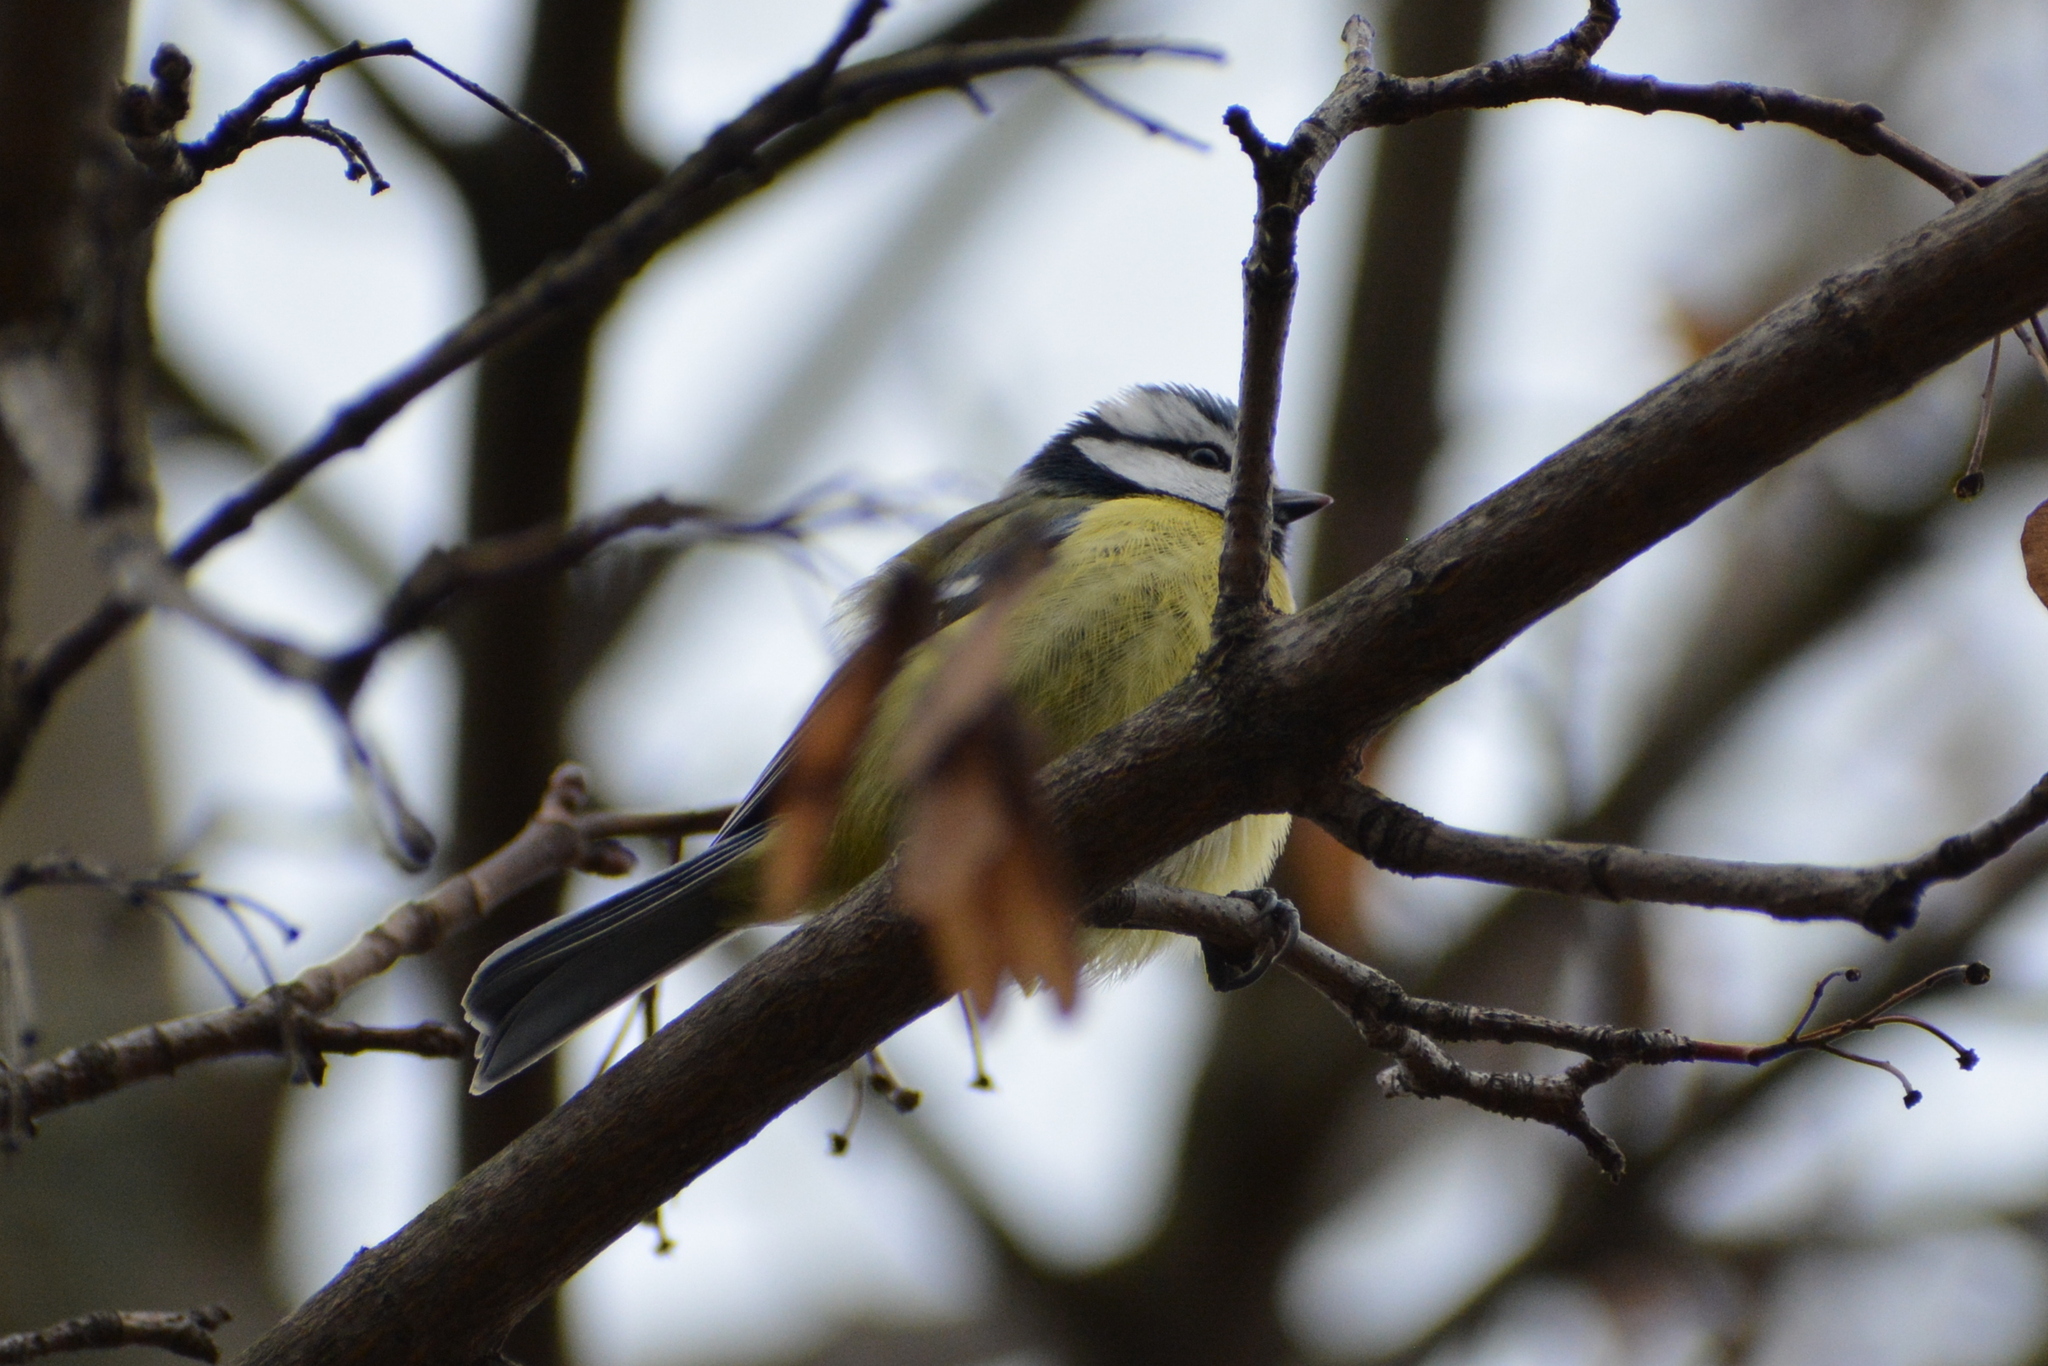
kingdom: Animalia
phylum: Chordata
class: Aves
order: Passeriformes
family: Paridae
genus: Cyanistes
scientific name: Cyanistes caeruleus
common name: Eurasian blue tit
